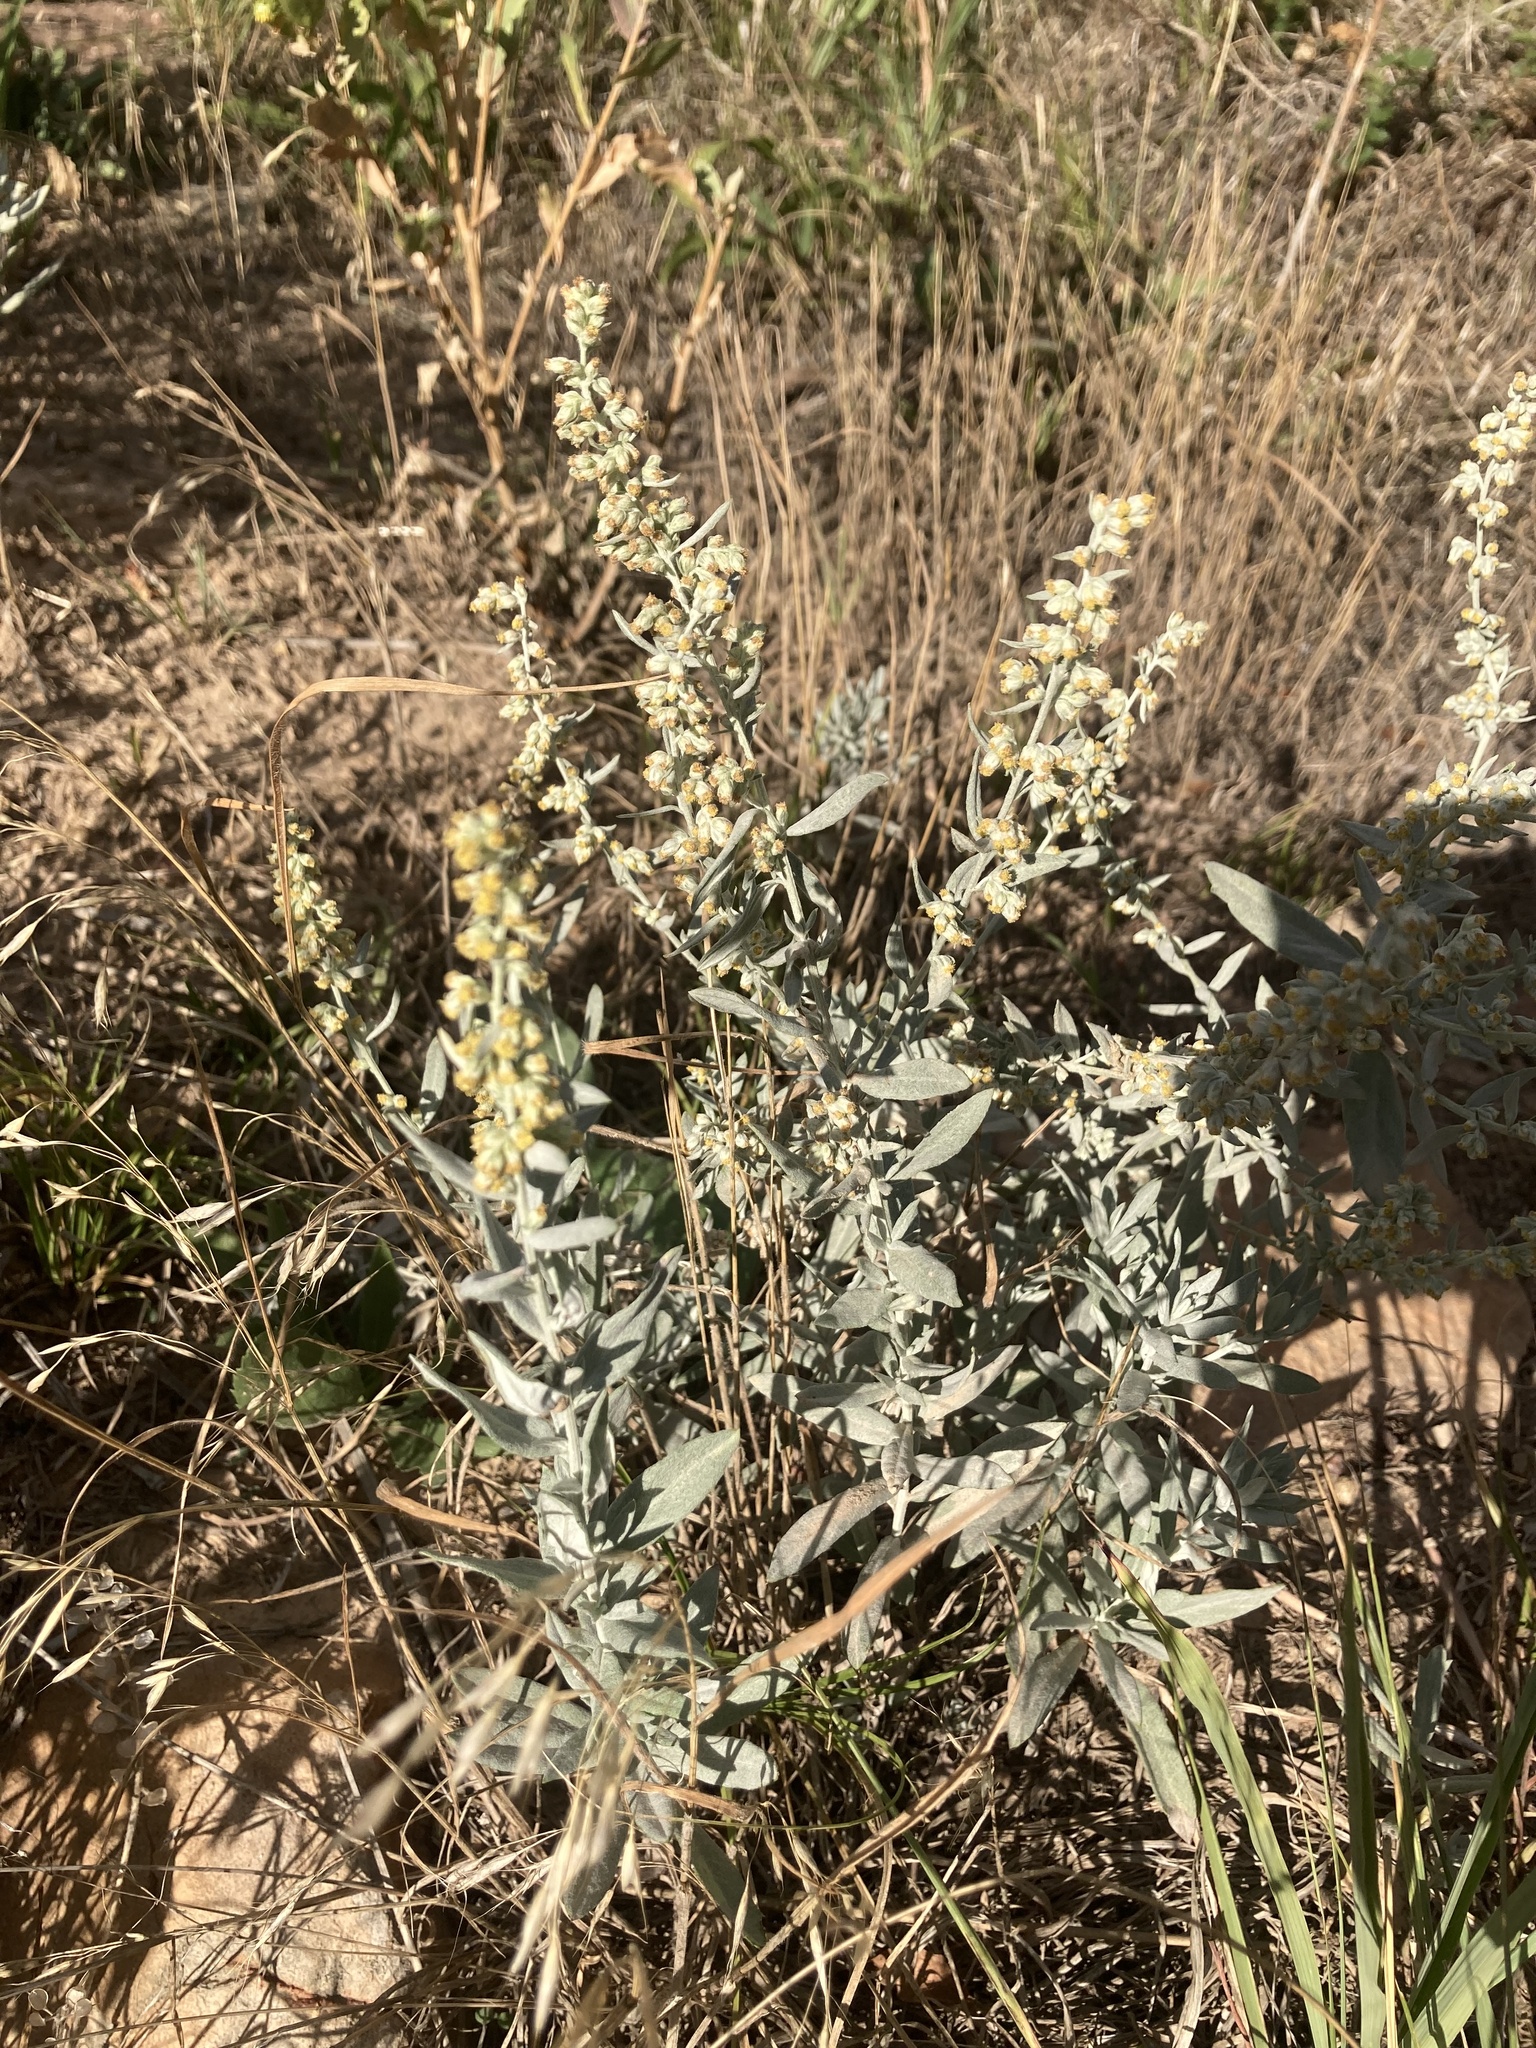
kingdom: Plantae
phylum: Tracheophyta
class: Magnoliopsida
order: Asterales
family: Asteraceae
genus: Artemisia
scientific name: Artemisia ludoviciana
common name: Western mugwort
